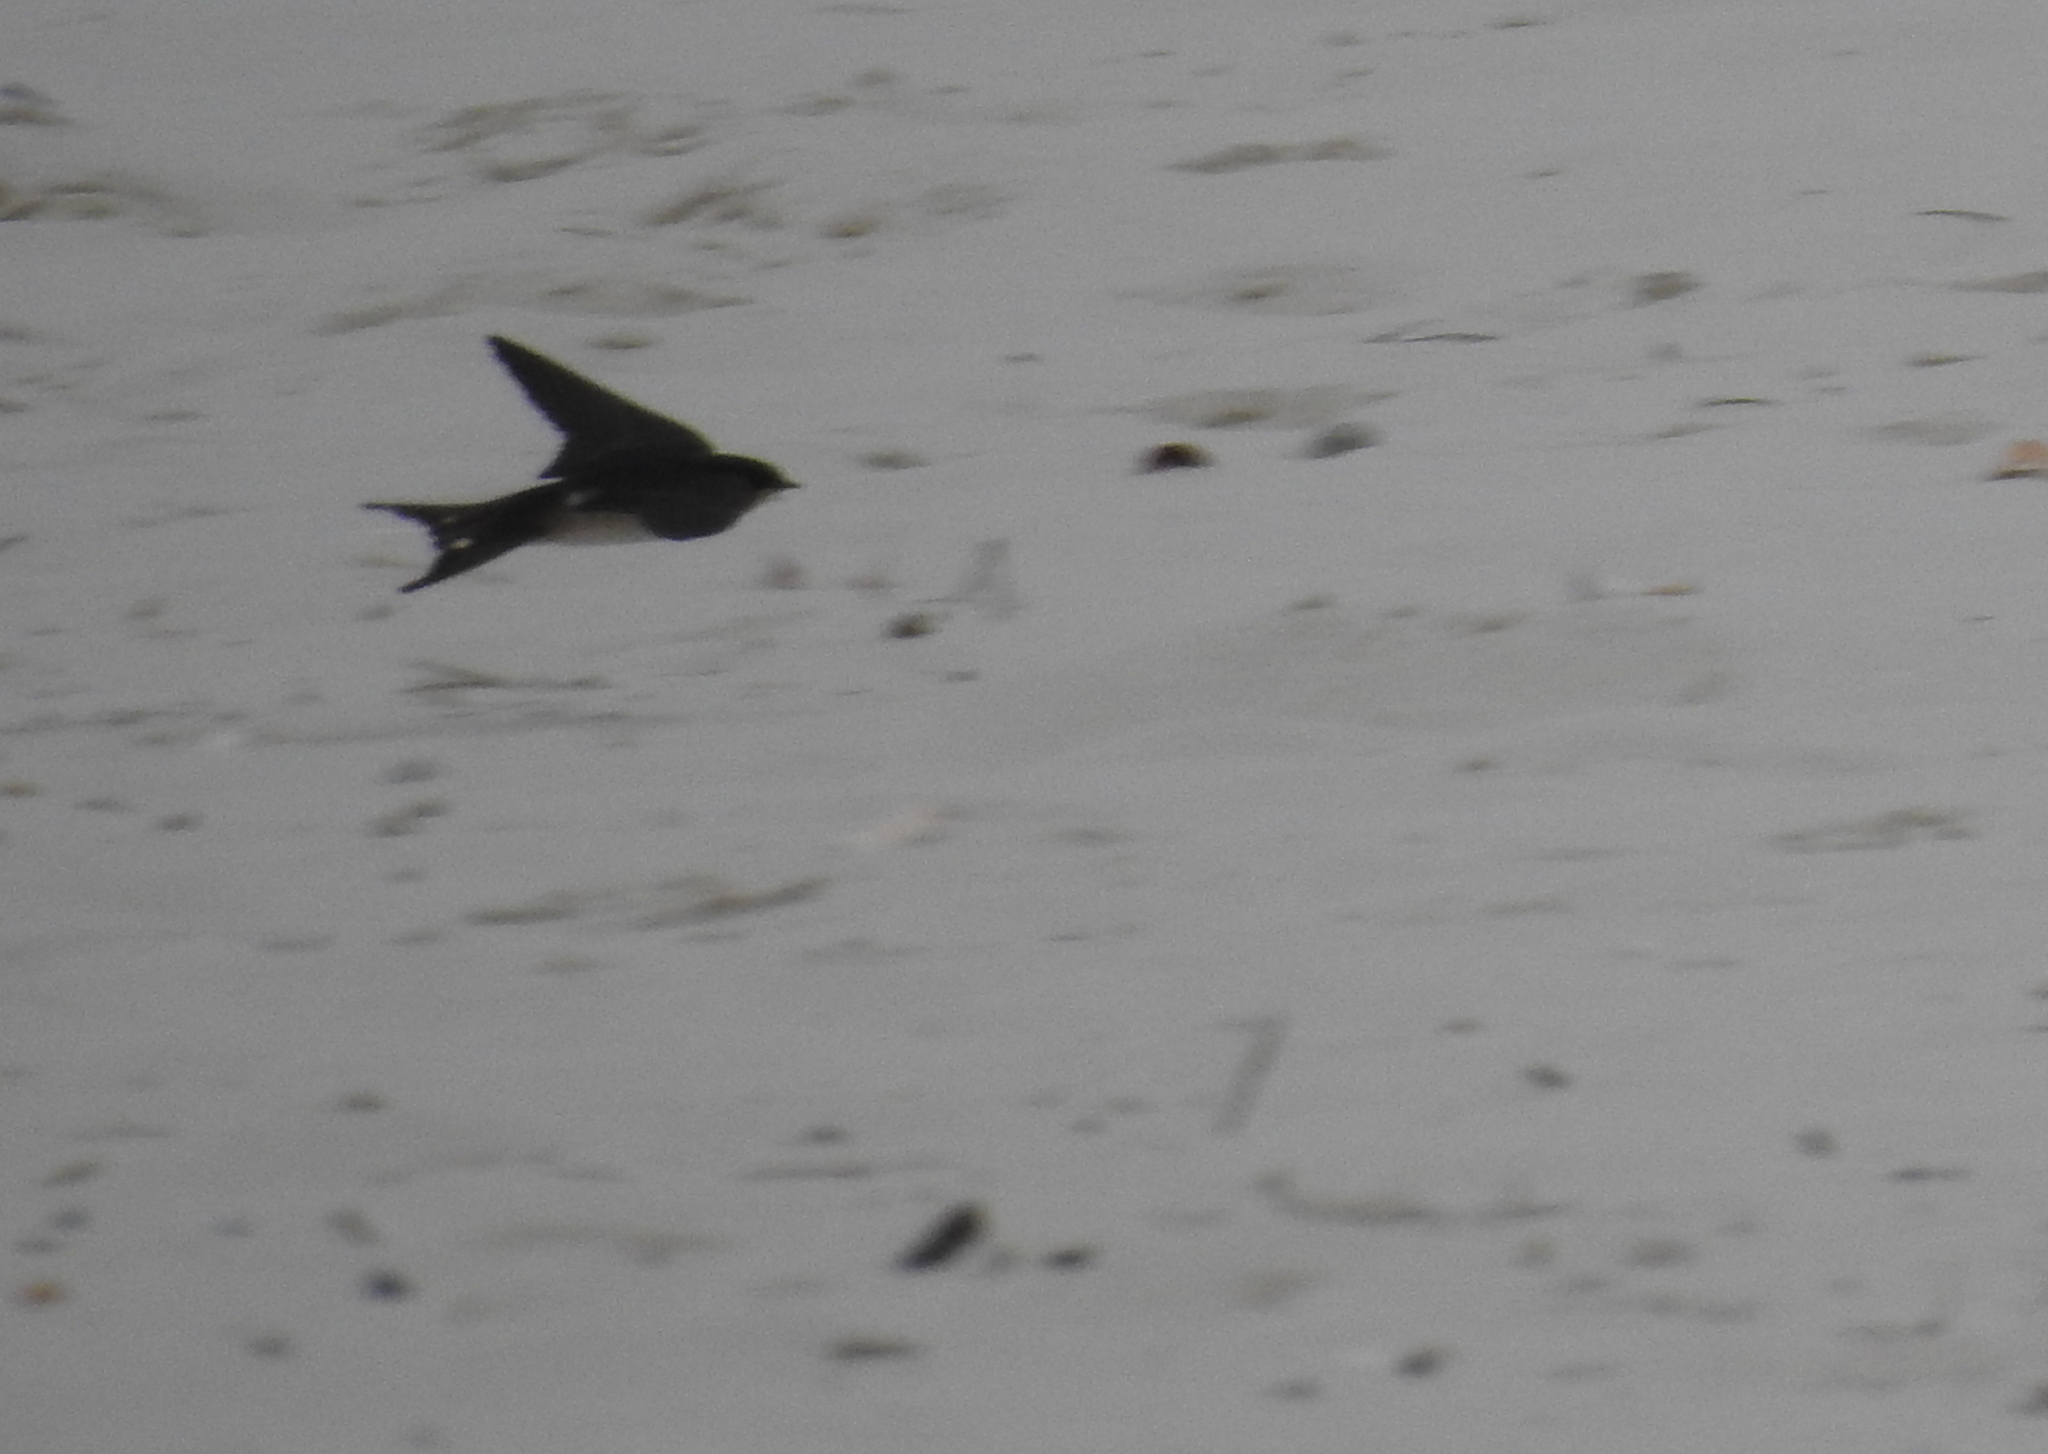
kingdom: Animalia
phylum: Chordata
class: Aves
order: Passeriformes
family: Hirundinidae
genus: Hirundo
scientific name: Hirundo rustica
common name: Barn swallow
